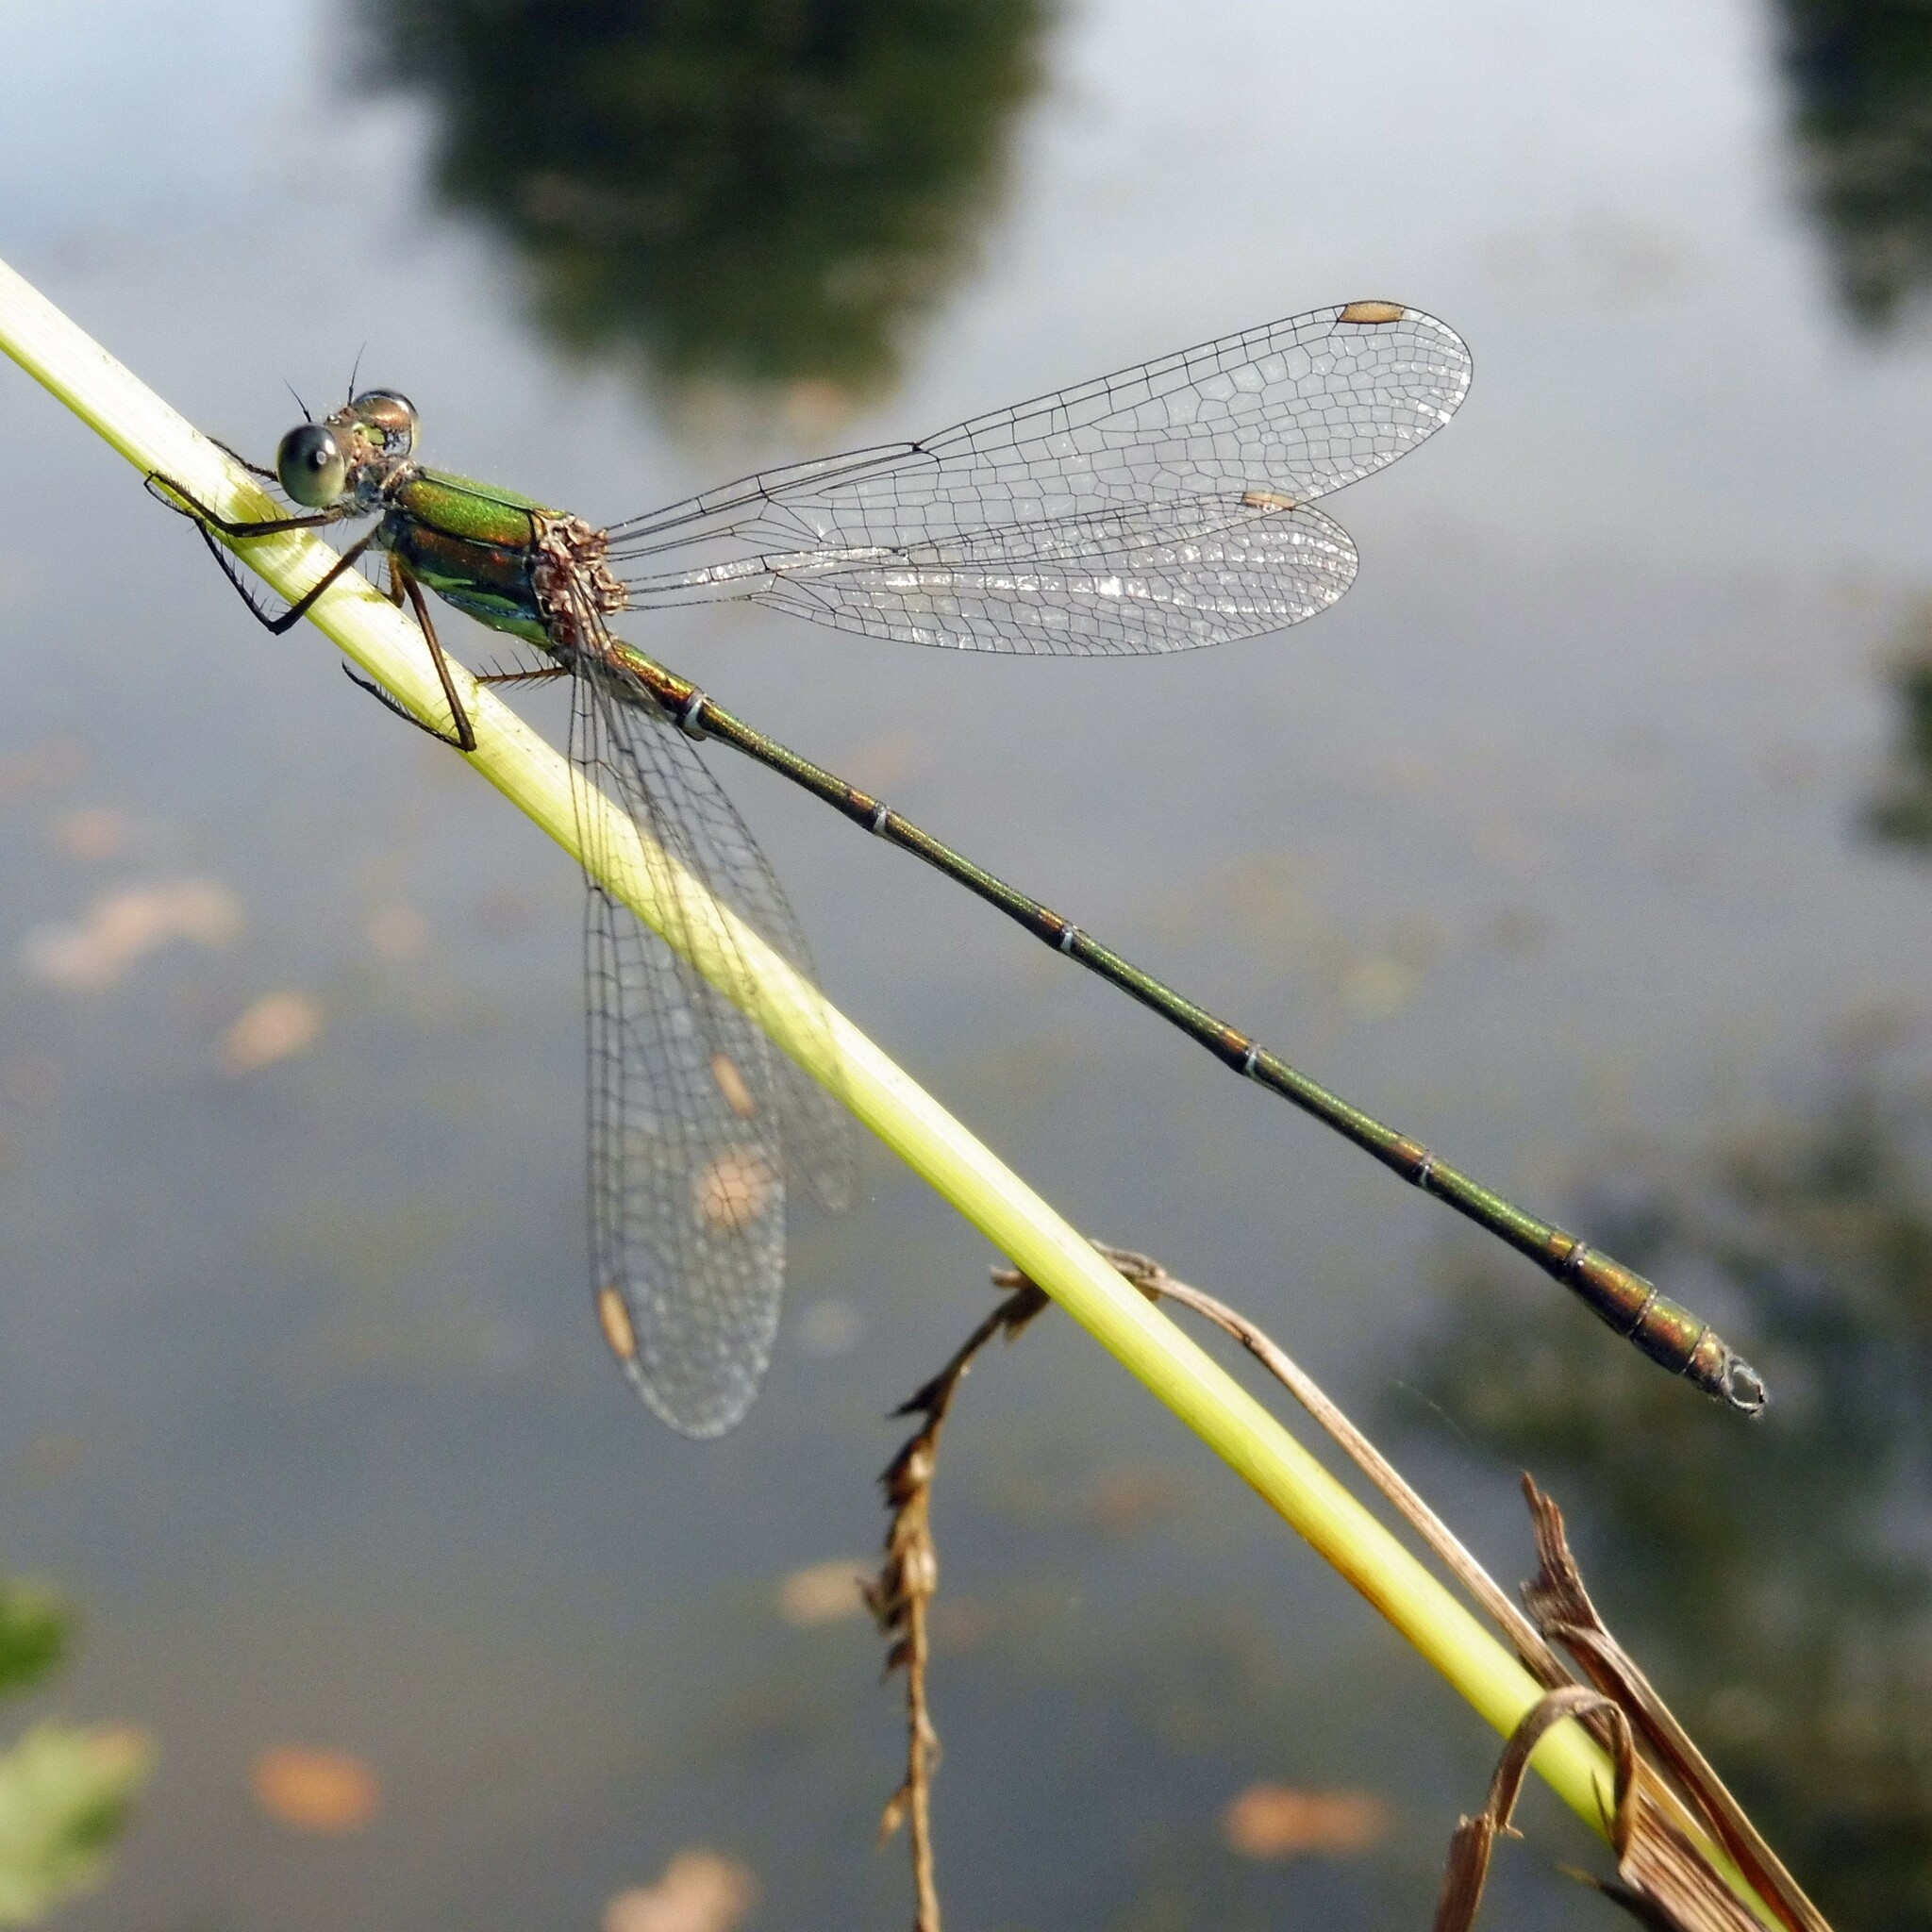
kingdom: Animalia
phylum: Arthropoda
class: Insecta
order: Odonata
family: Lestidae
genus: Chalcolestes
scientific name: Chalcolestes viridis
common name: Green emerald damselfly
